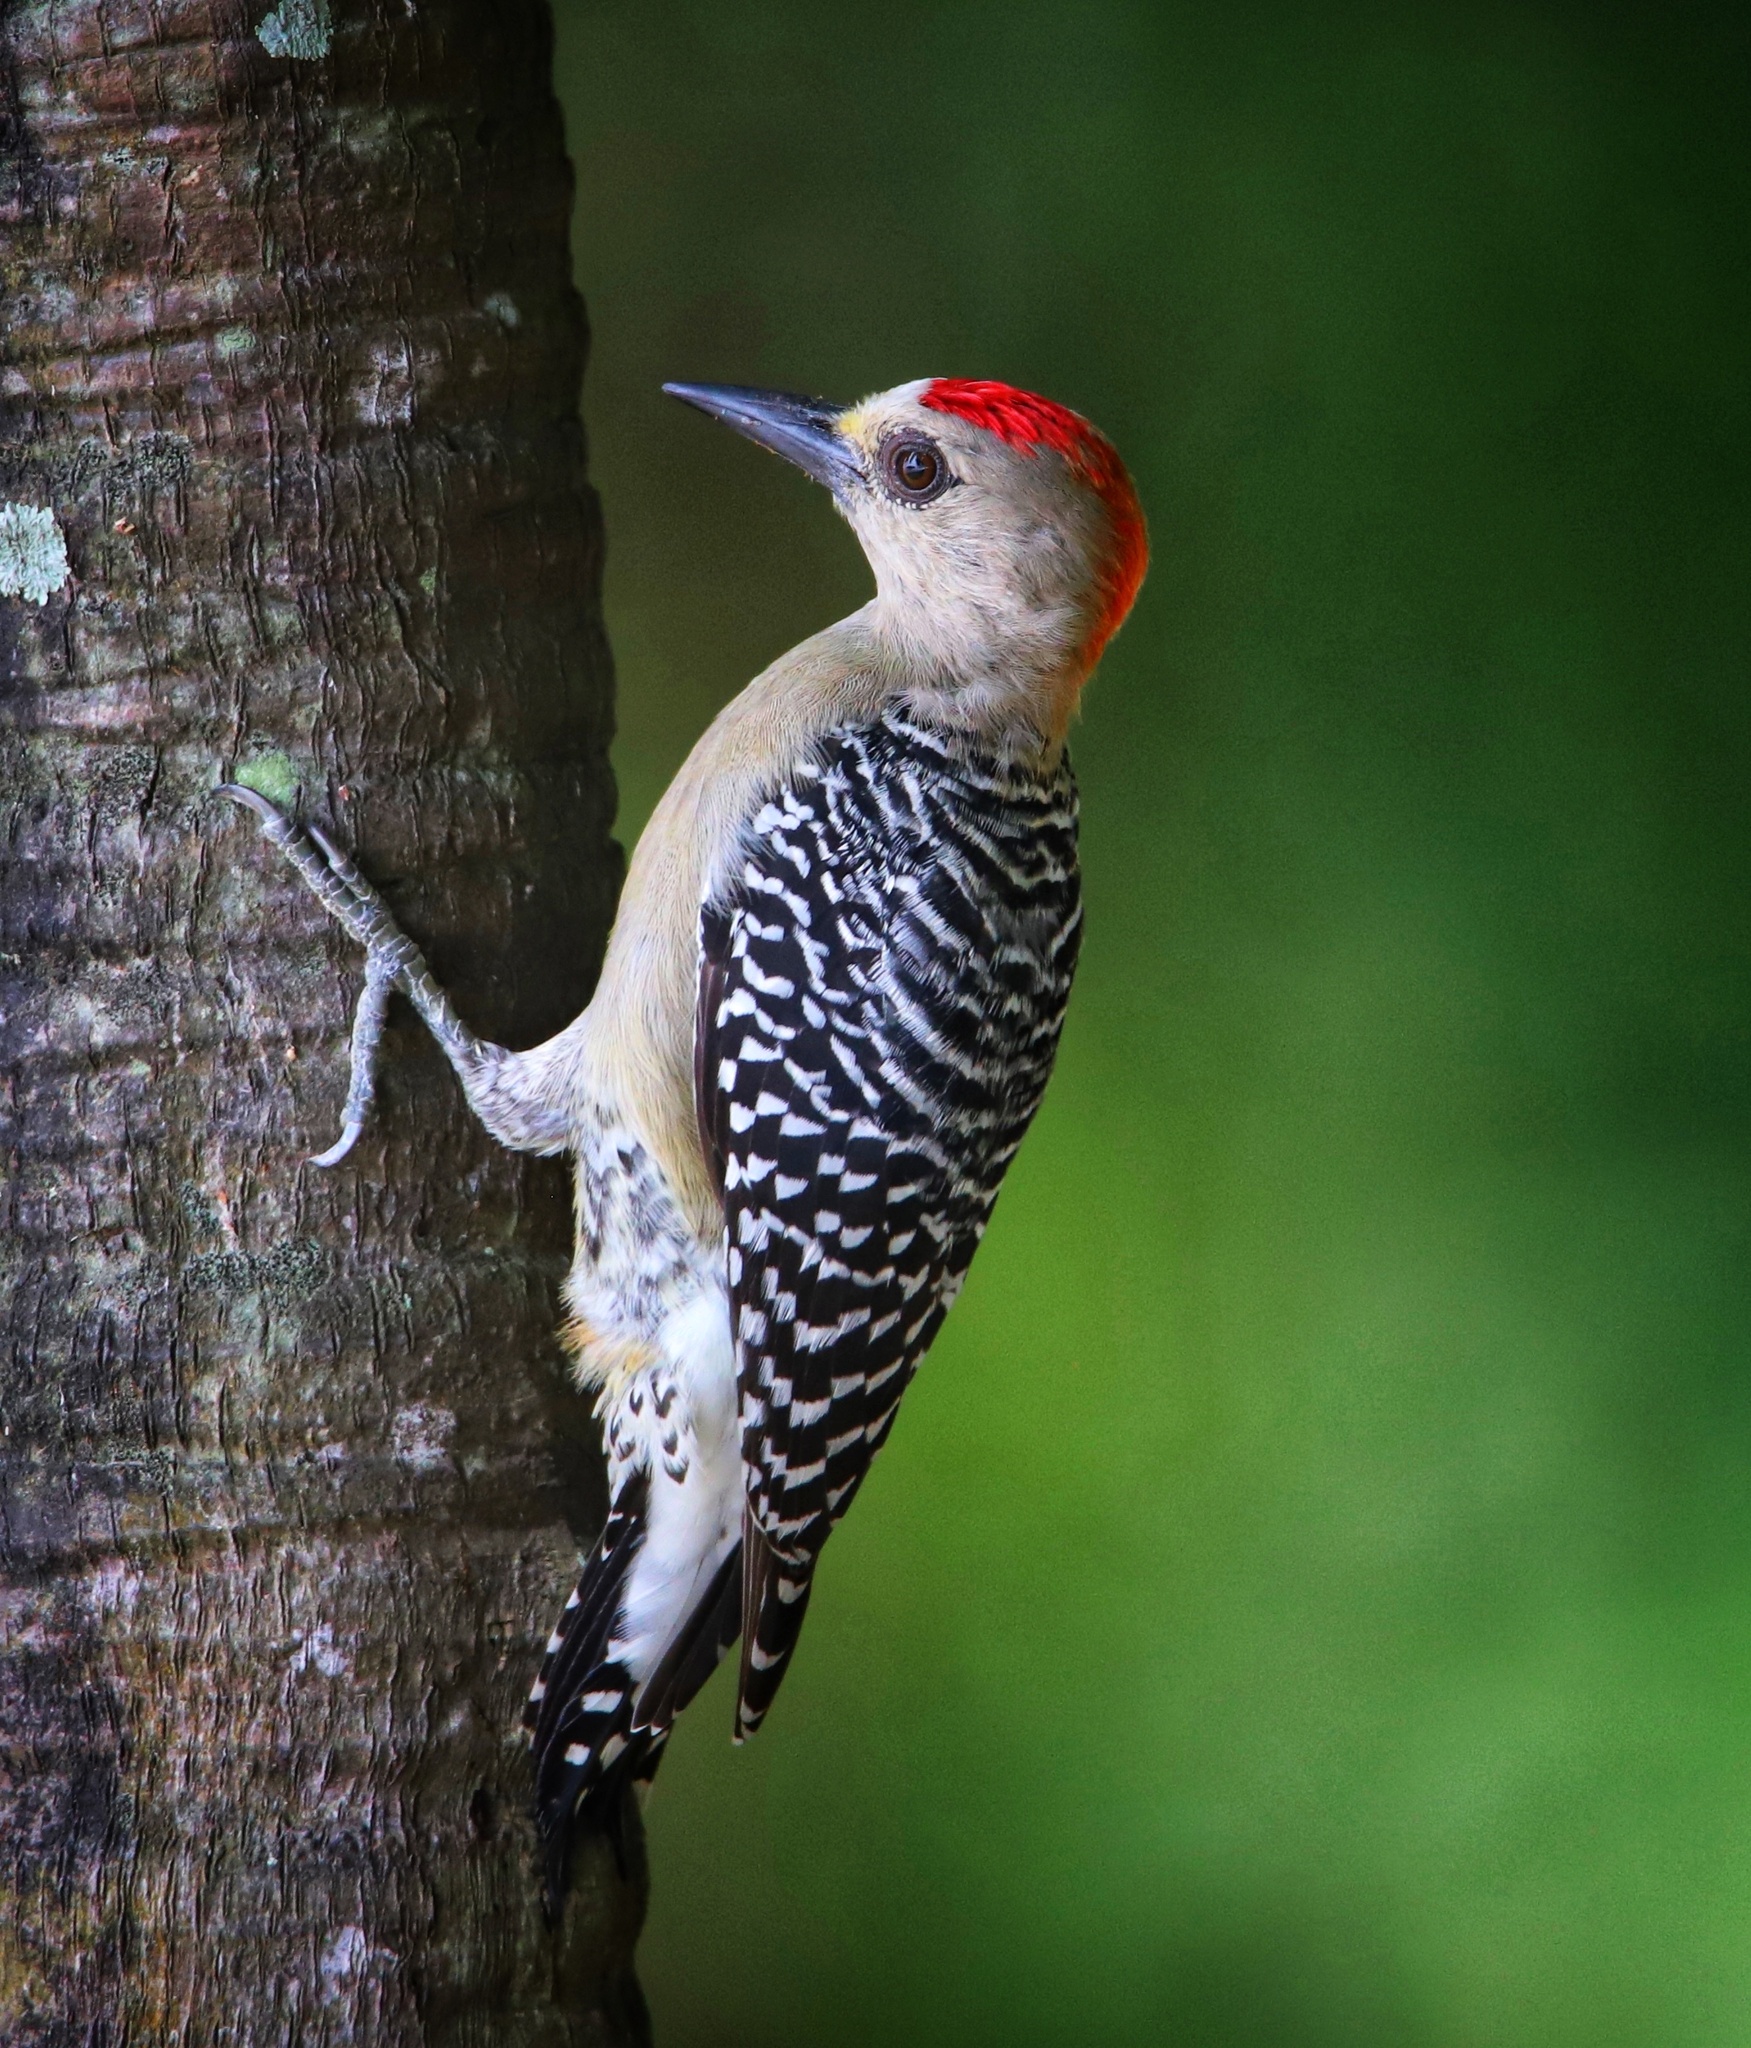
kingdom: Animalia
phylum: Chordata
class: Aves
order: Piciformes
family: Picidae
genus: Melanerpes
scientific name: Melanerpes rubricapillus
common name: Red-crowned woodpecker
